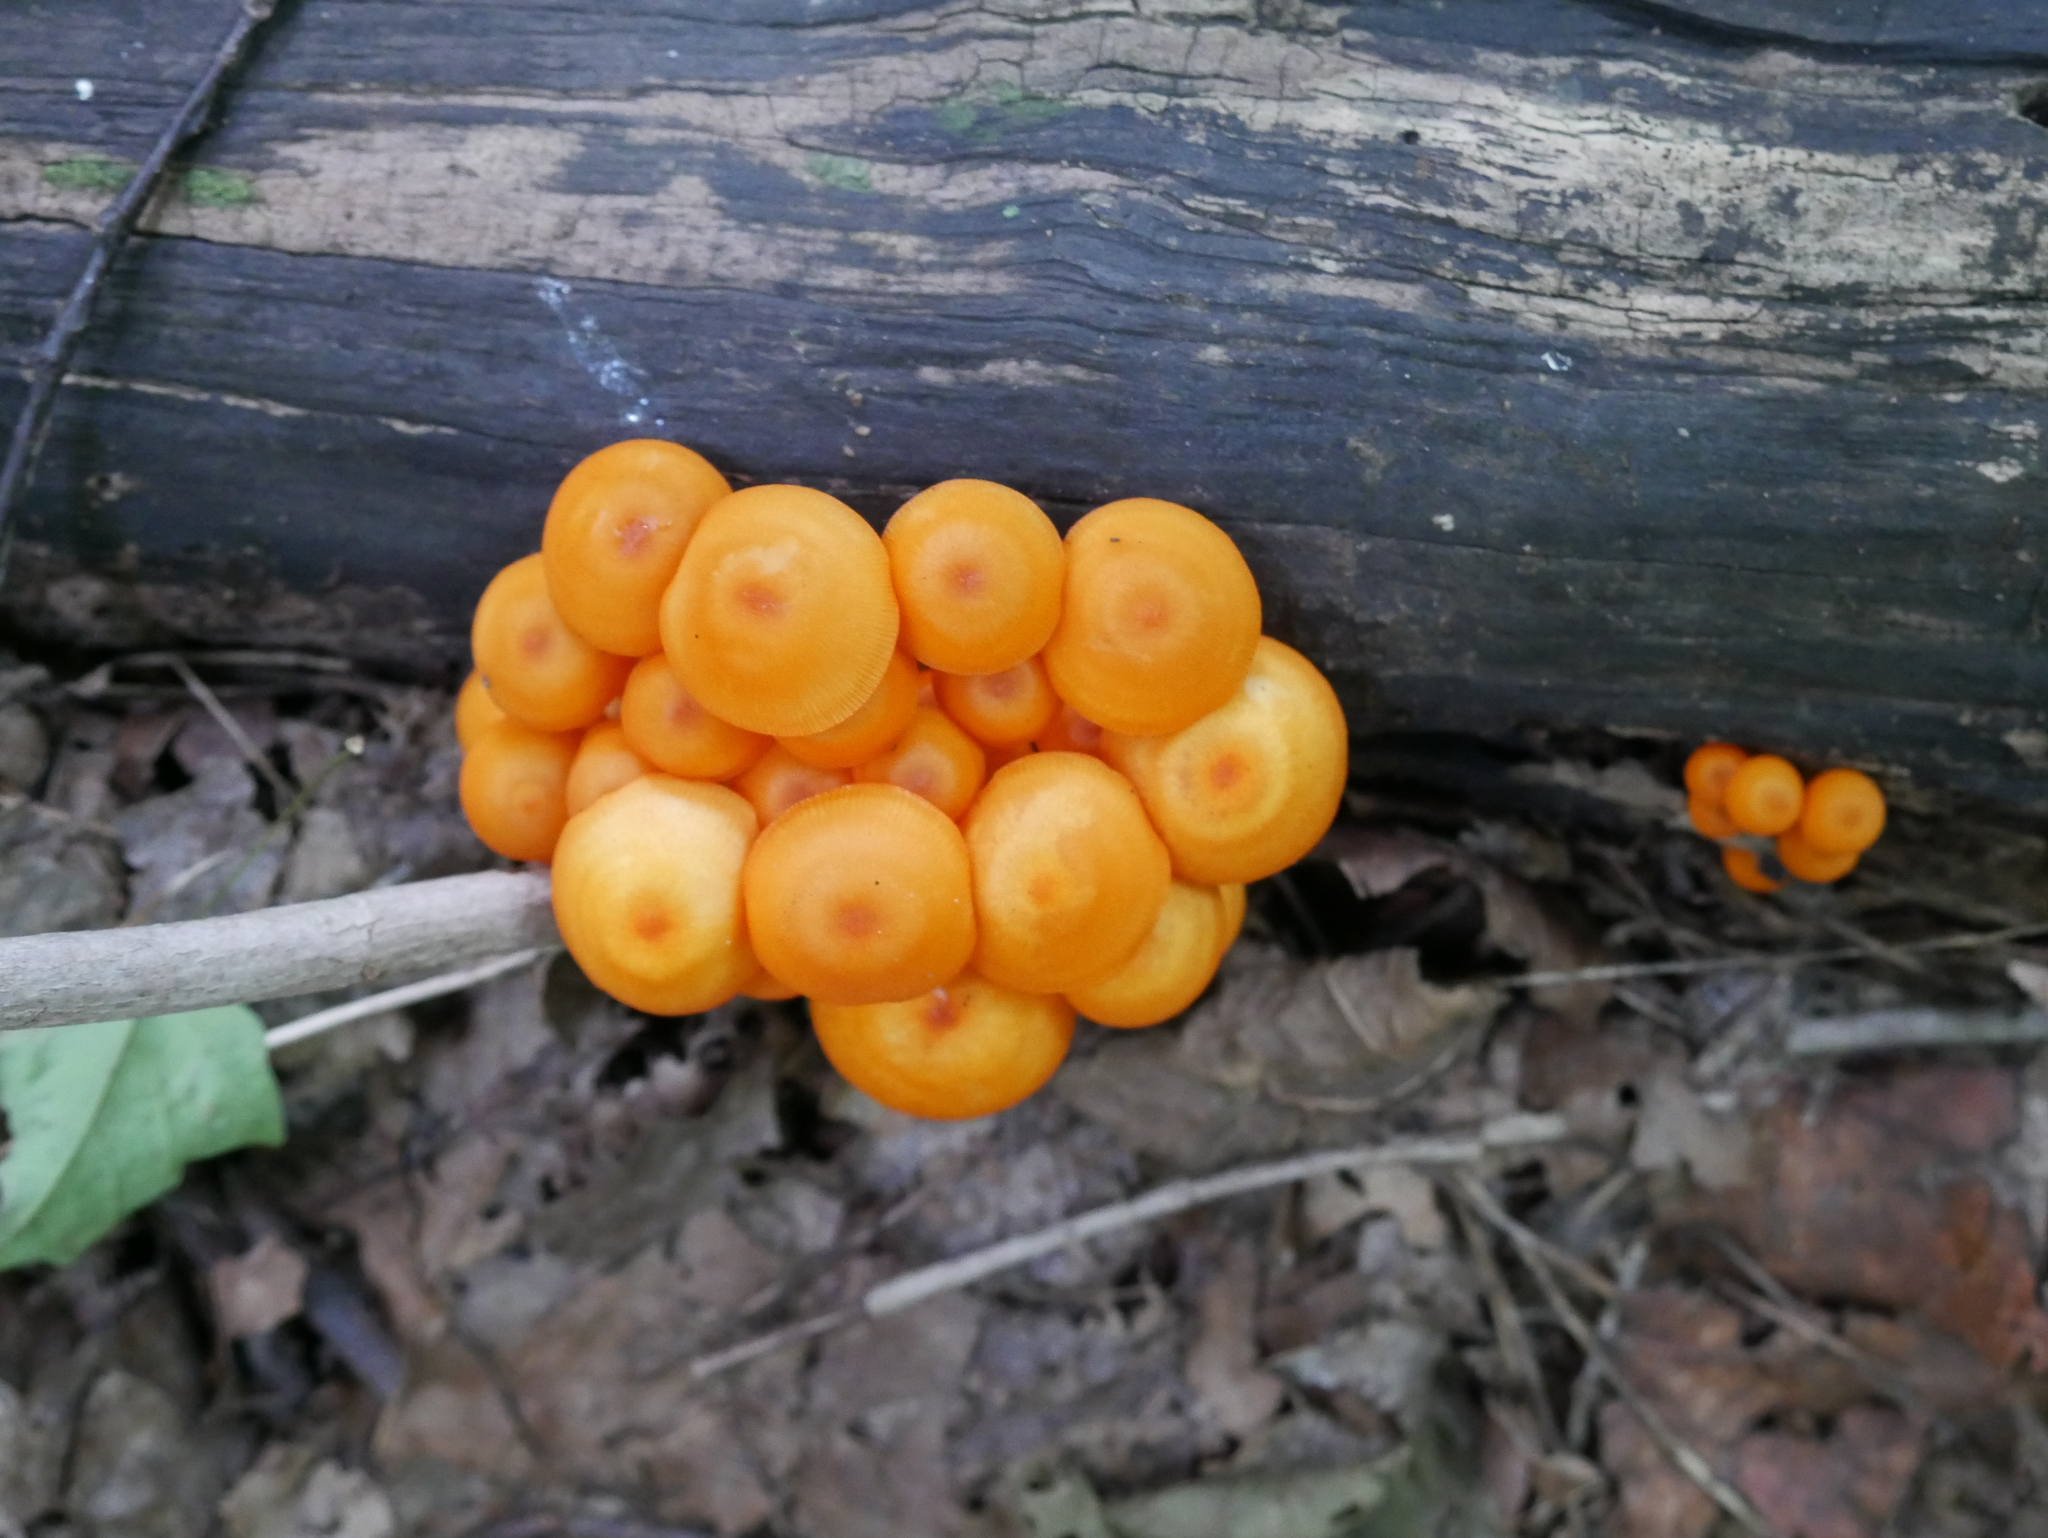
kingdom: Fungi
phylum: Basidiomycota
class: Agaricomycetes
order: Agaricales
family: Mycenaceae
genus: Mycena
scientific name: Mycena leaiana
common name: Orange mycena
